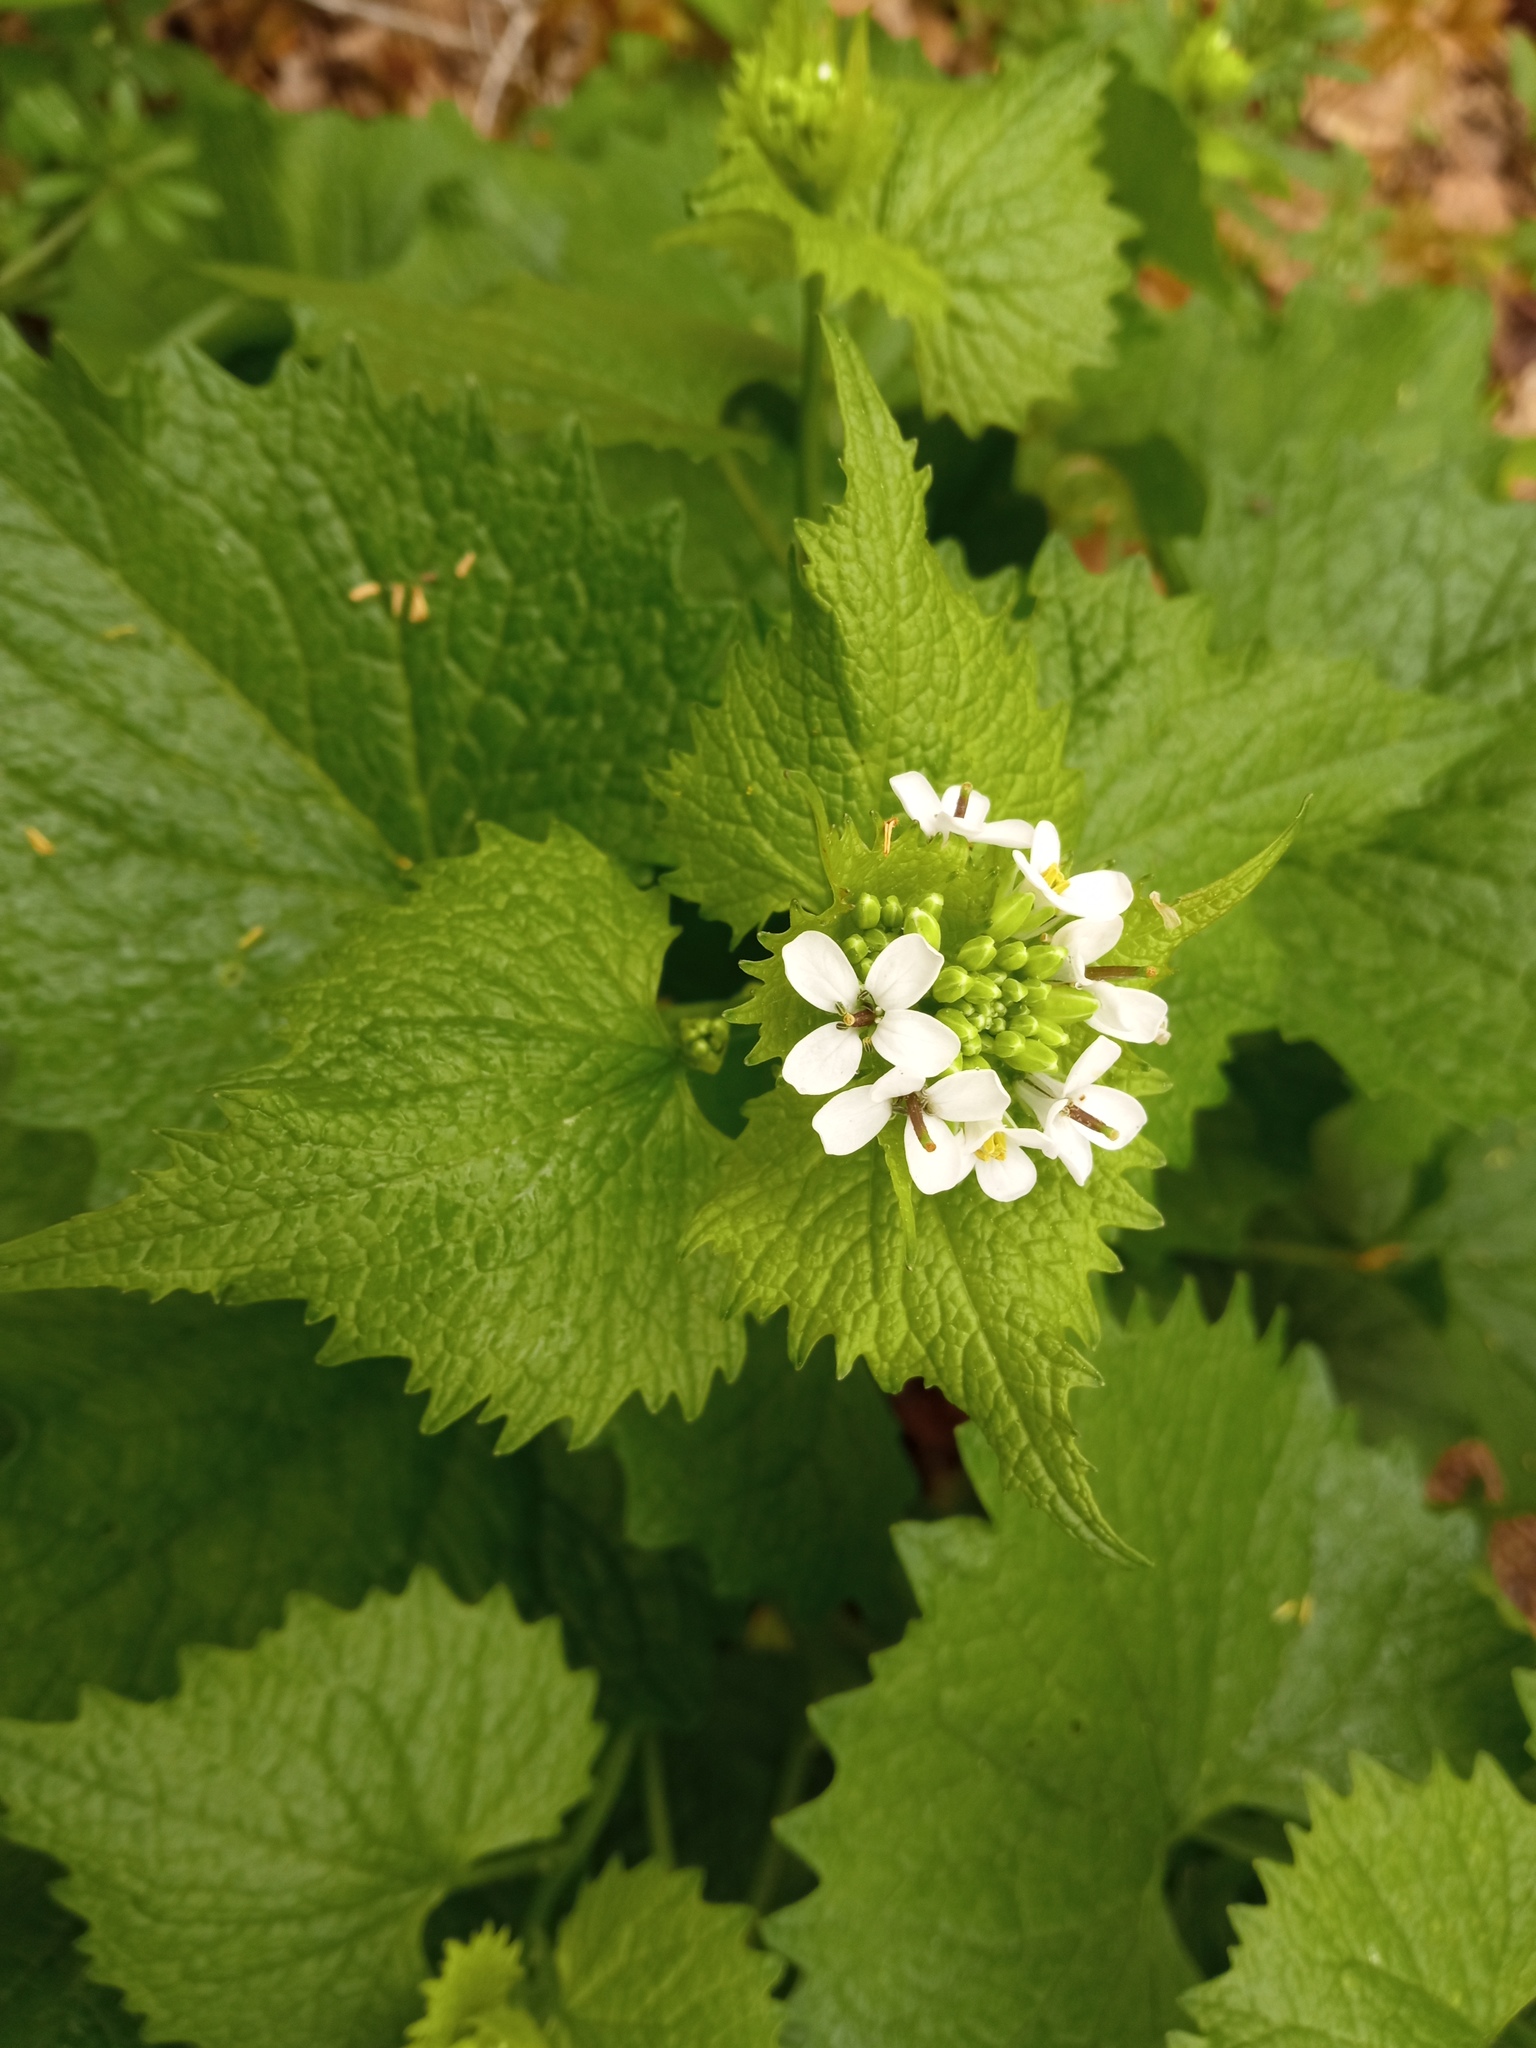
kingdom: Plantae
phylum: Tracheophyta
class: Magnoliopsida
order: Brassicales
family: Brassicaceae
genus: Alliaria
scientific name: Alliaria petiolata
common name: Garlic mustard
